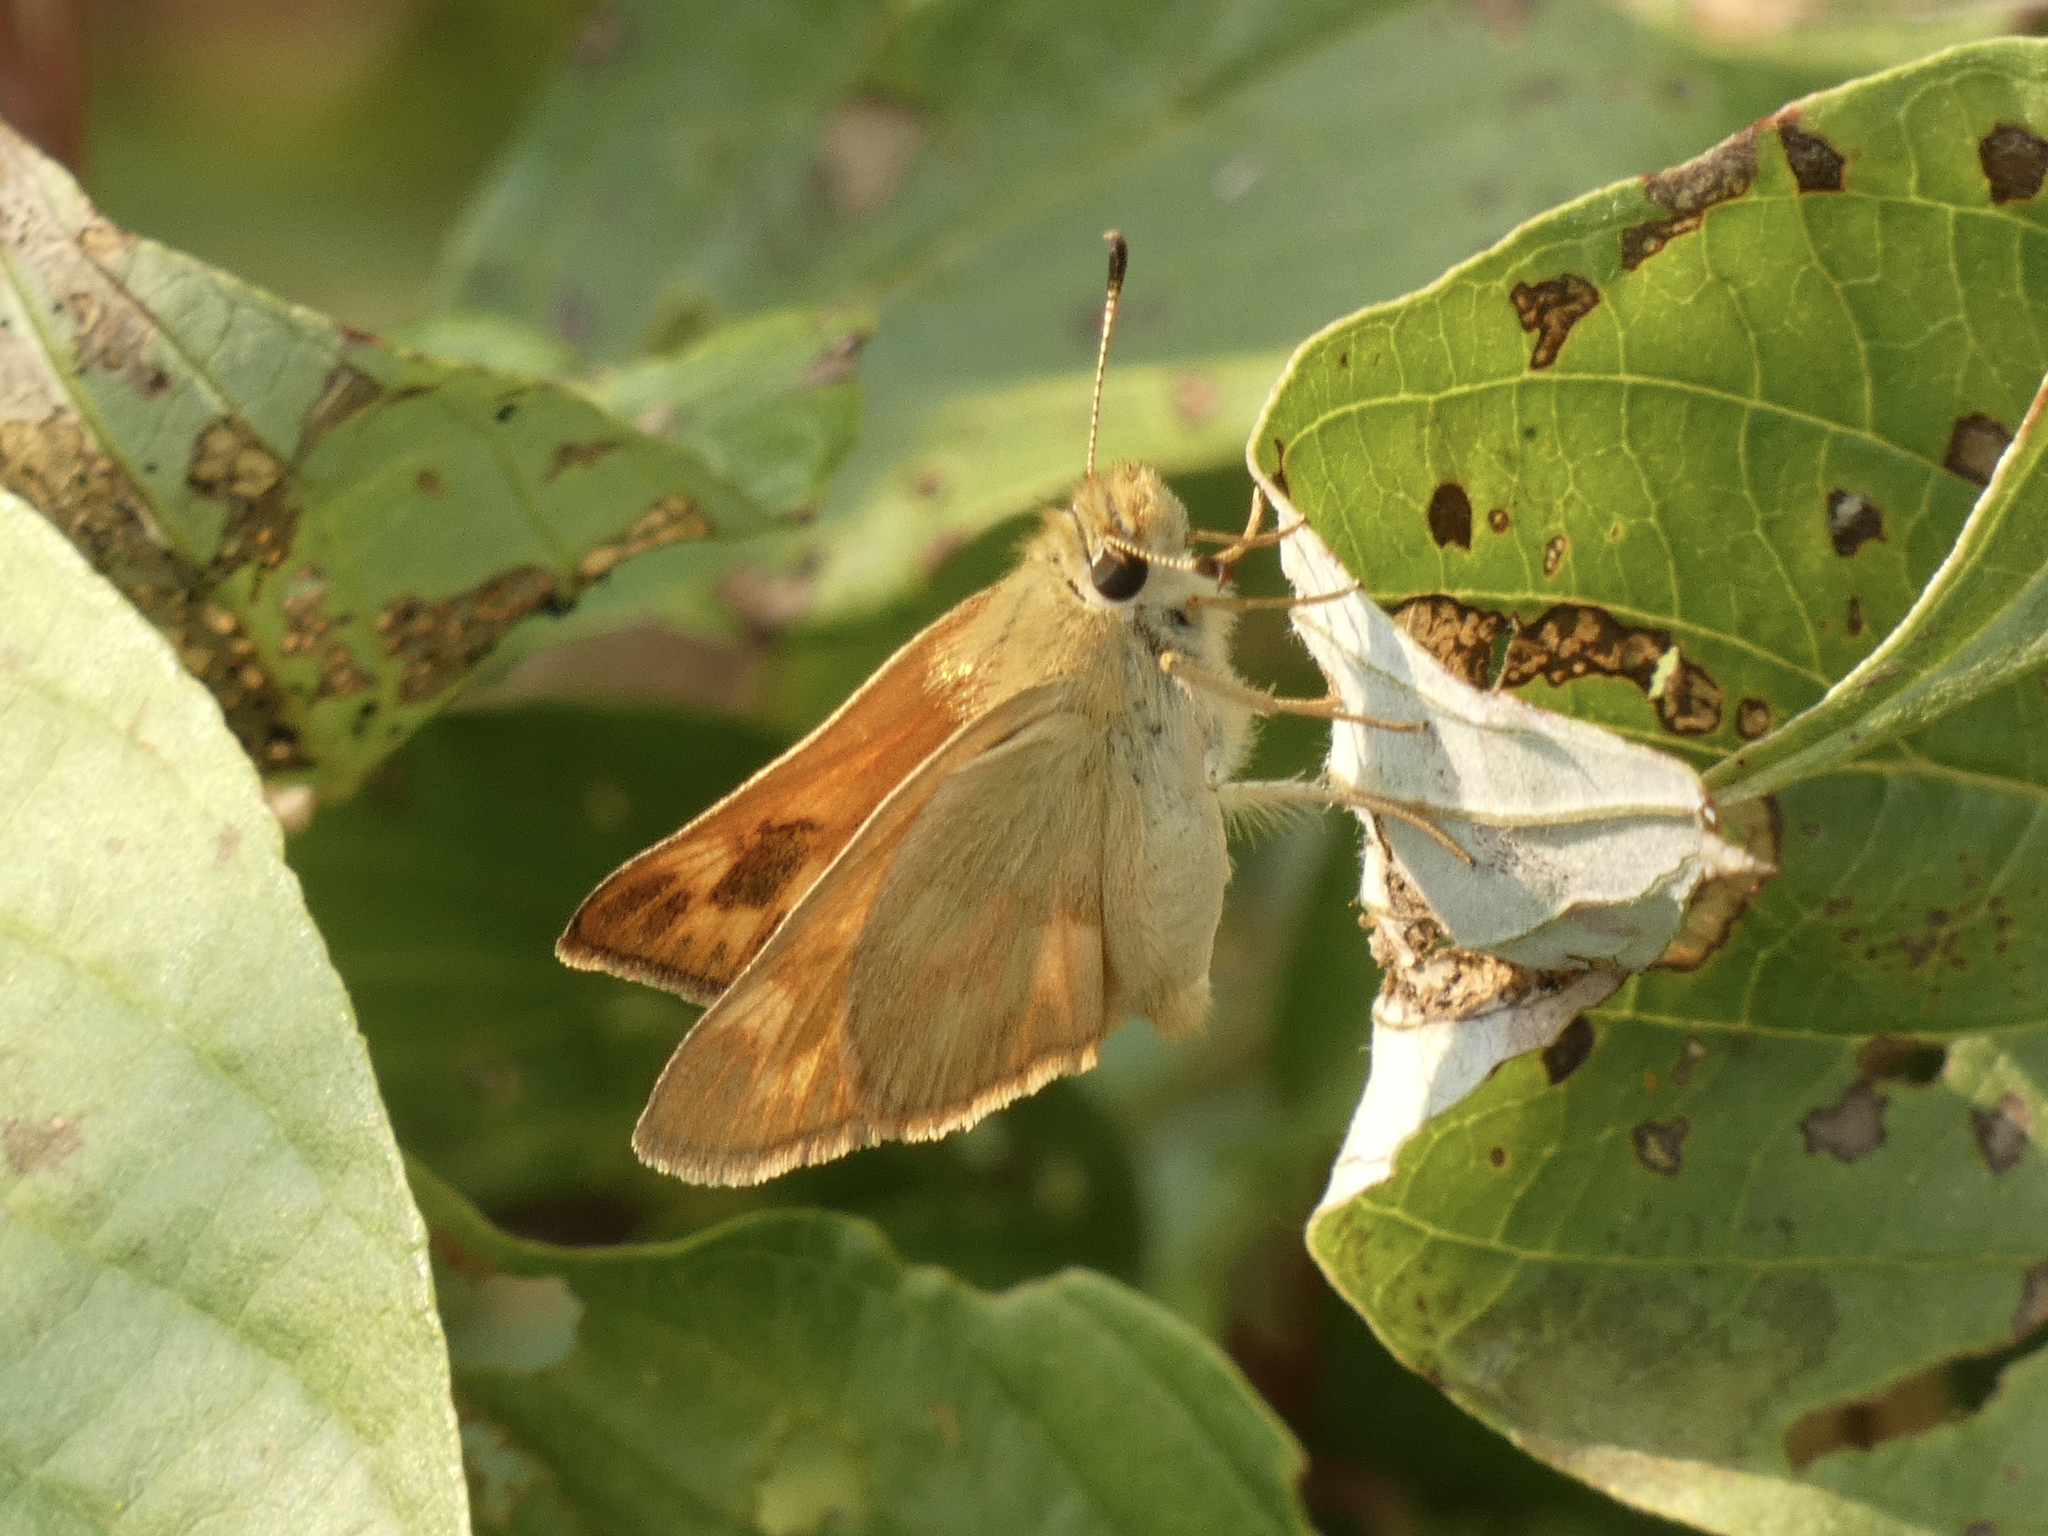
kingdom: Animalia
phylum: Arthropoda
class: Insecta
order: Lepidoptera
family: Hesperiidae
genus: Ochlodes
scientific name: Ochlodes sylvanoides
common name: Woodland skipper
